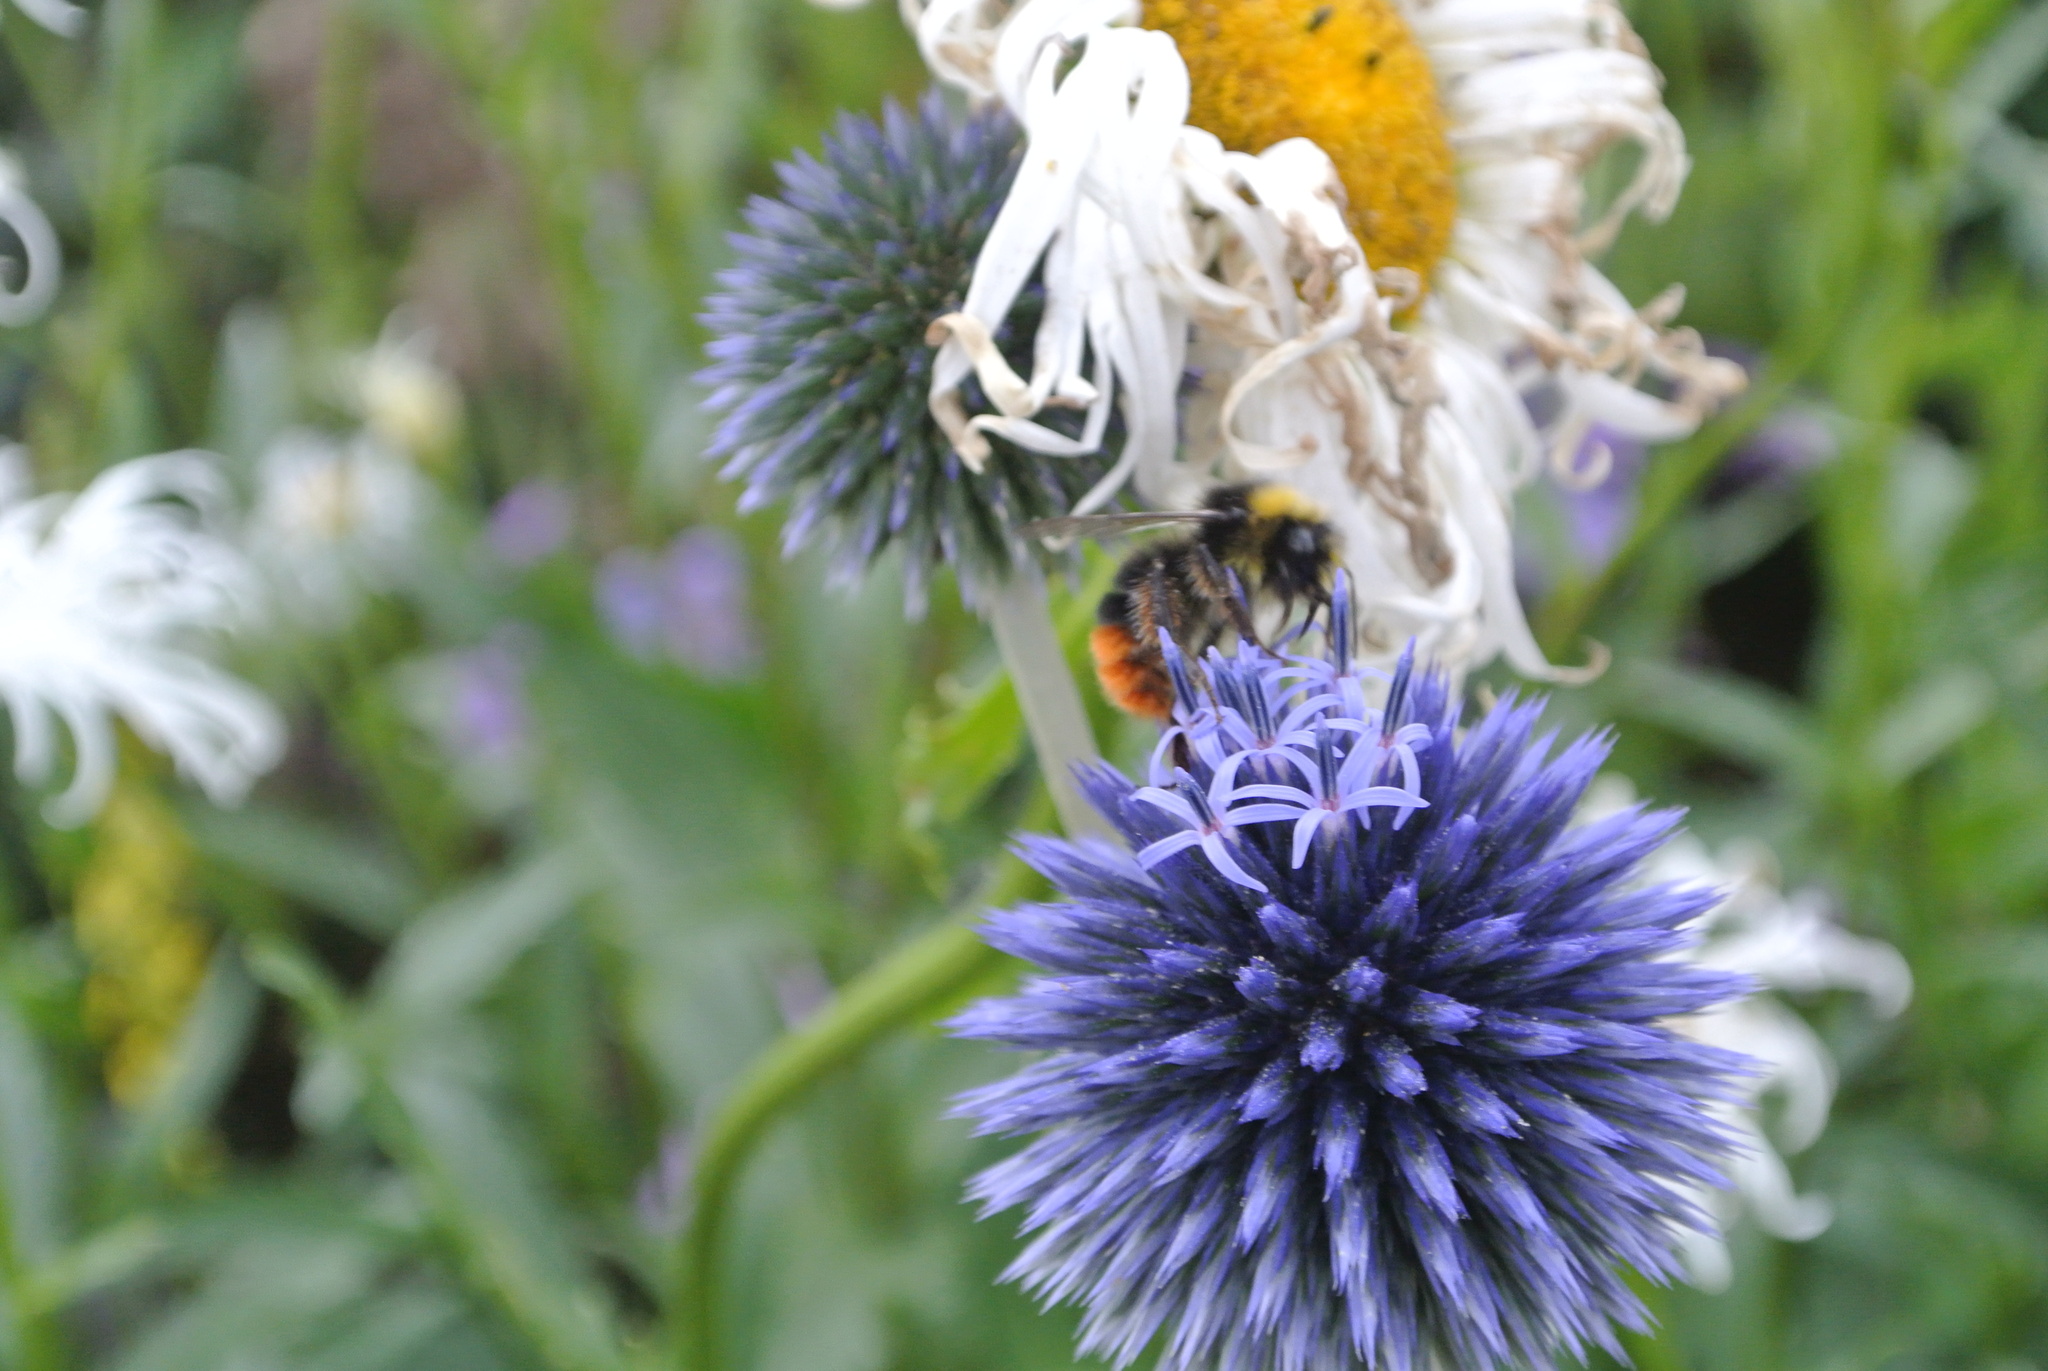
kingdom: Animalia
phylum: Arthropoda
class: Insecta
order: Hymenoptera
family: Apidae
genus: Bombus
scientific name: Bombus lapidarius
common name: Large red-tailed humble-bee
